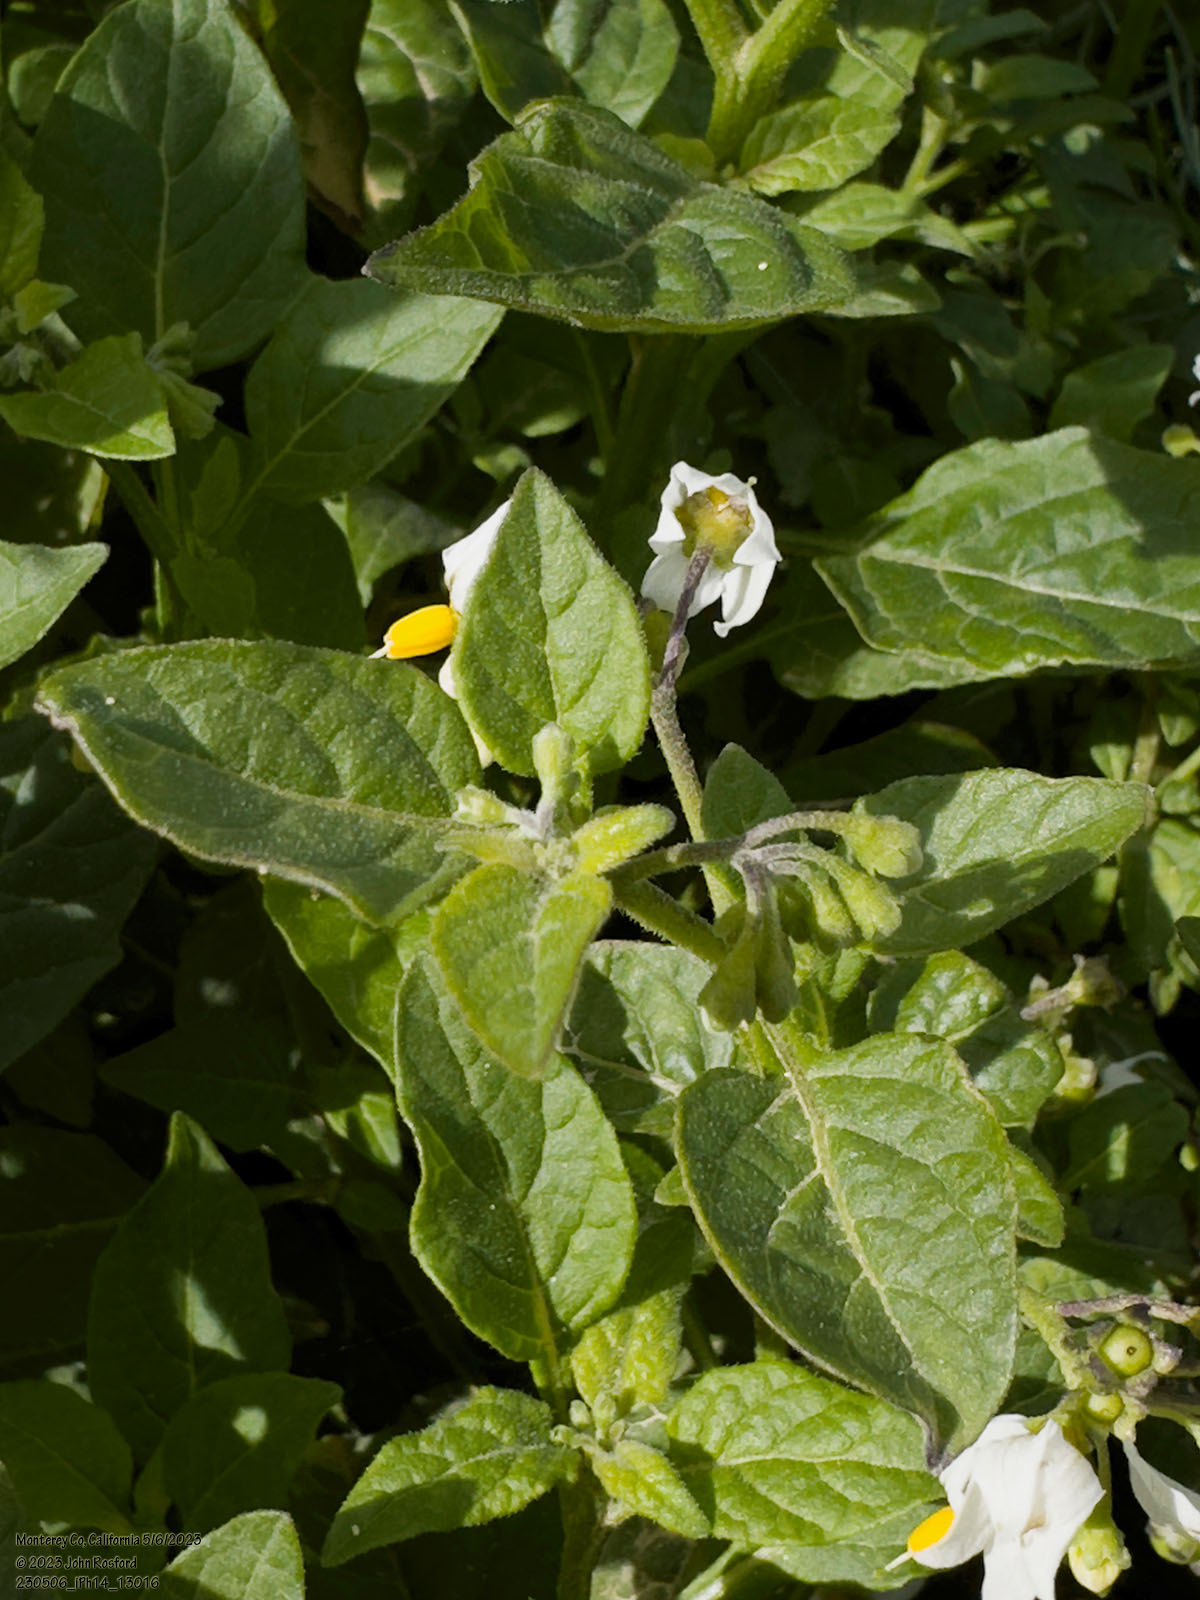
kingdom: Plantae
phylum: Tracheophyta
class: Magnoliopsida
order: Solanales
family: Solanaceae
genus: Solanum
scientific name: Solanum douglasii
